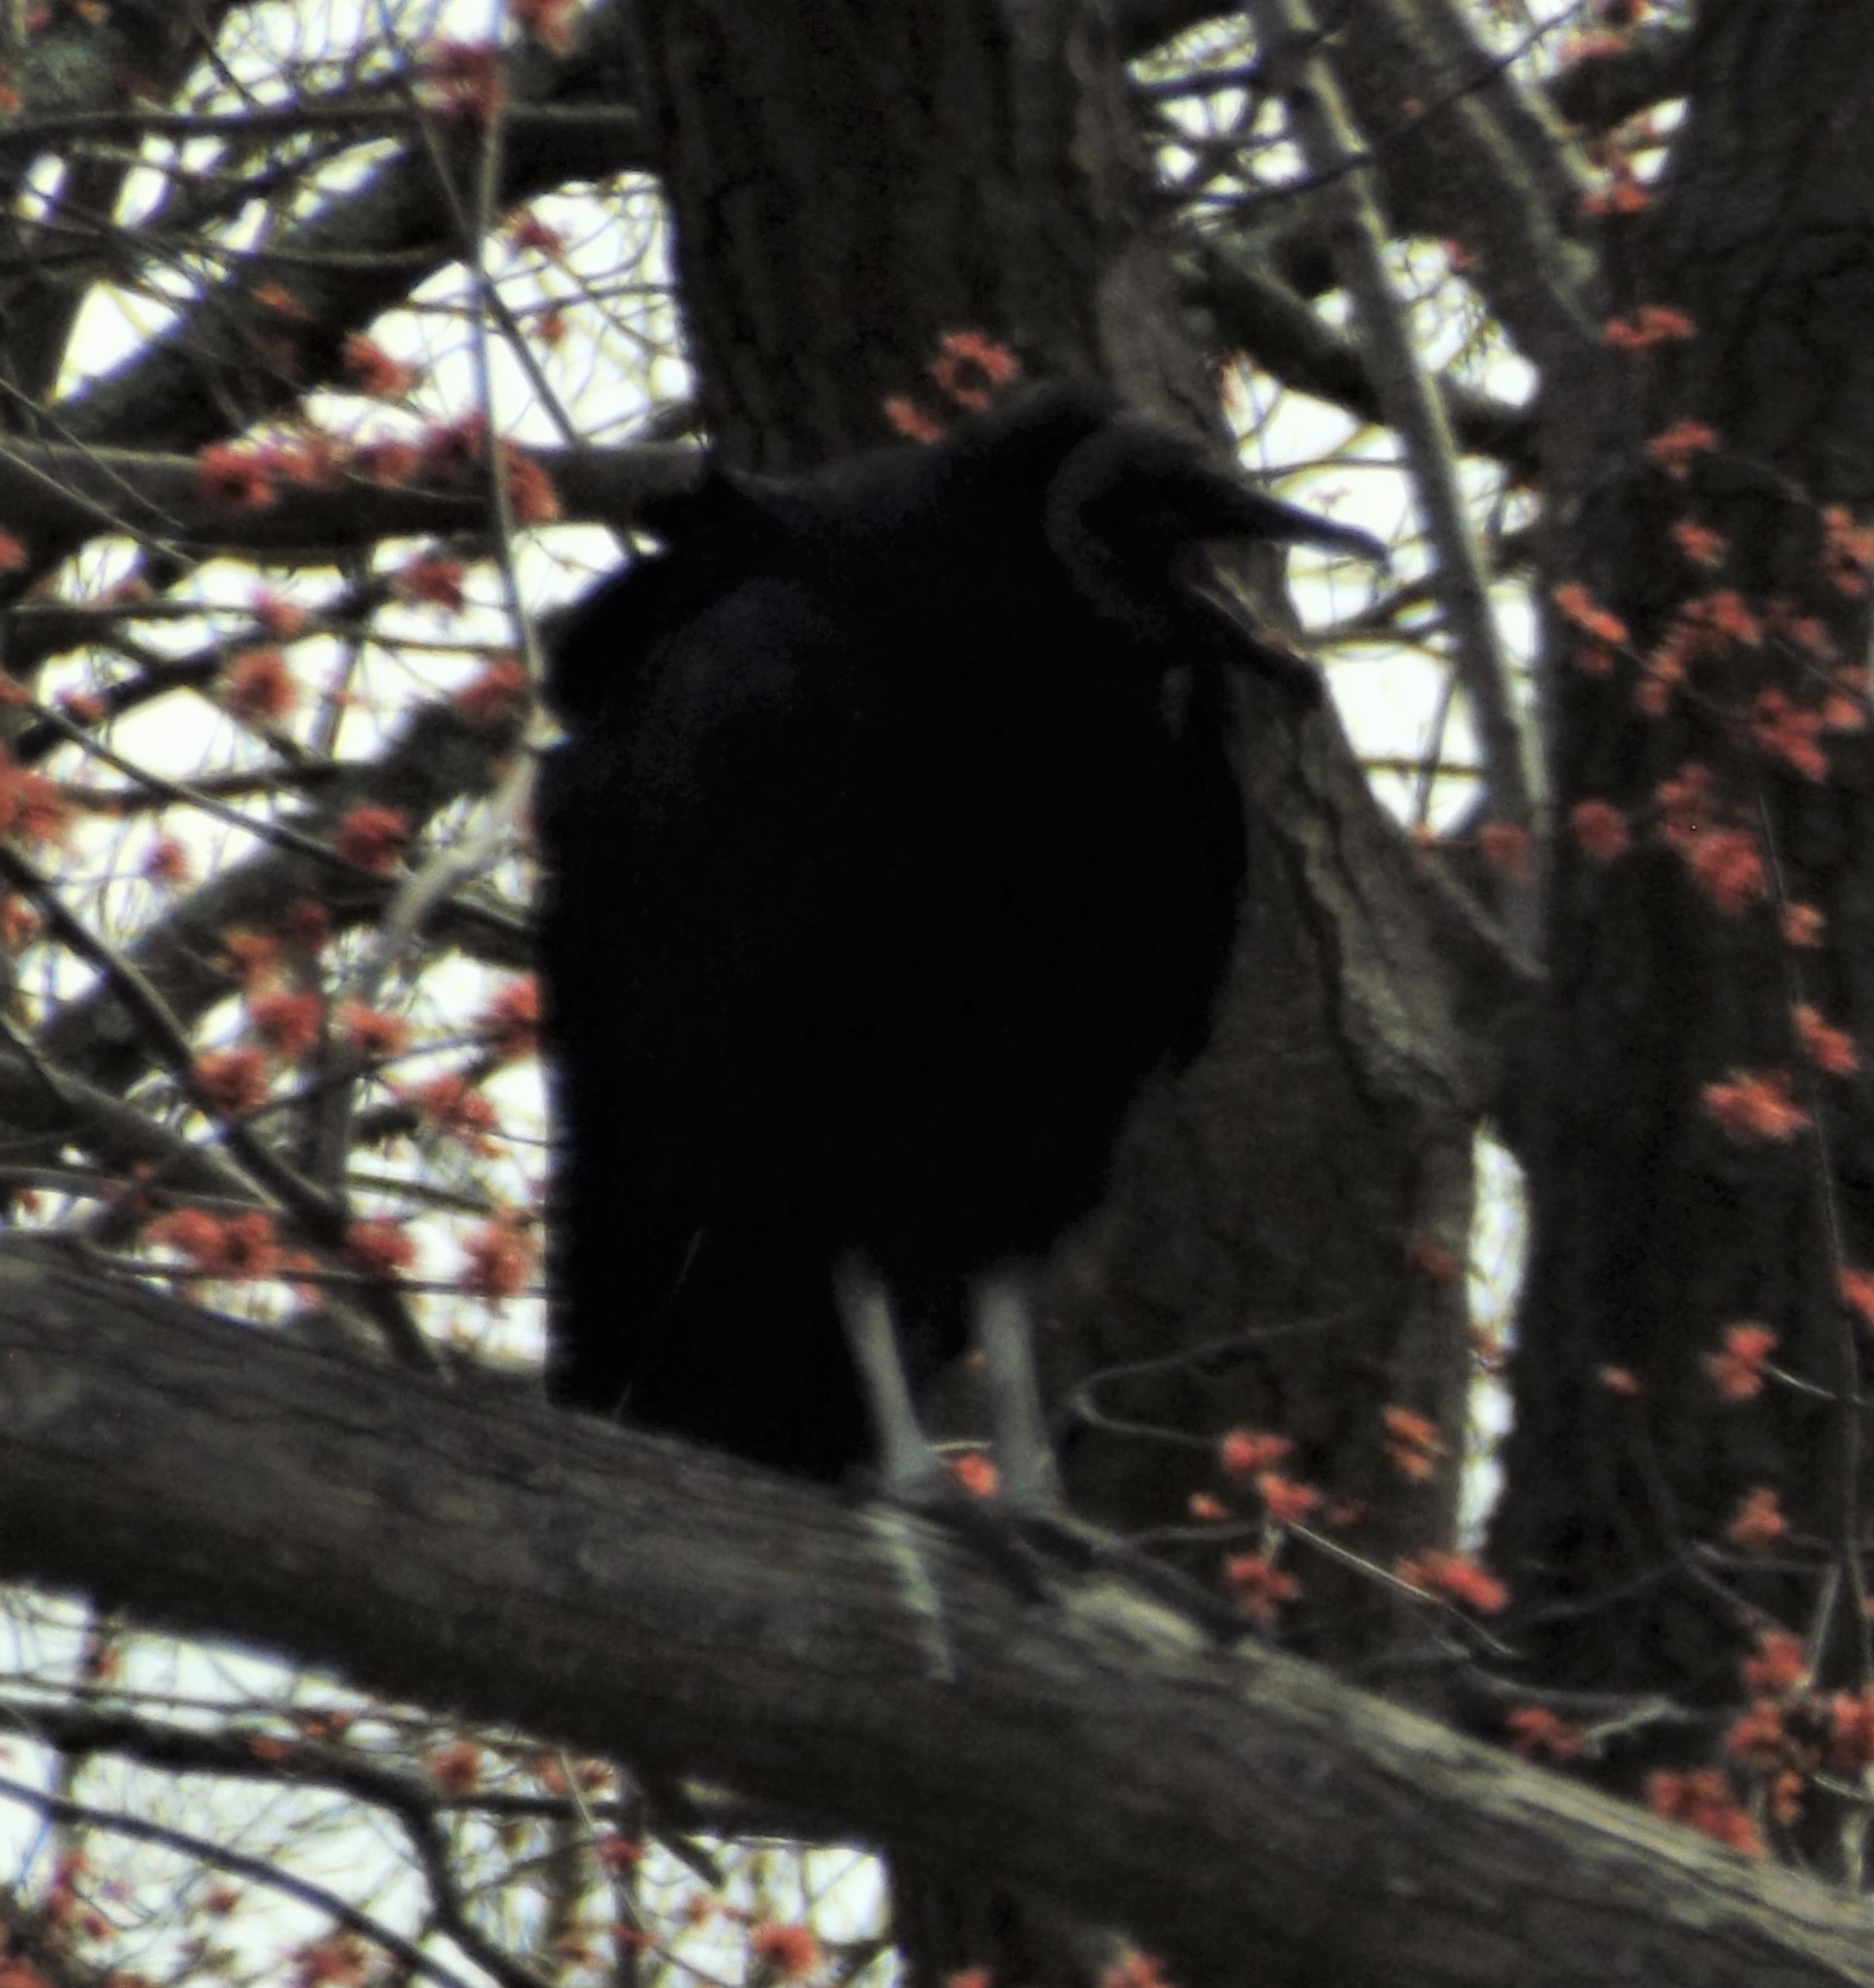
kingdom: Animalia
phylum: Chordata
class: Aves
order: Accipitriformes
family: Cathartidae
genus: Coragyps
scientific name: Coragyps atratus
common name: Black vulture
